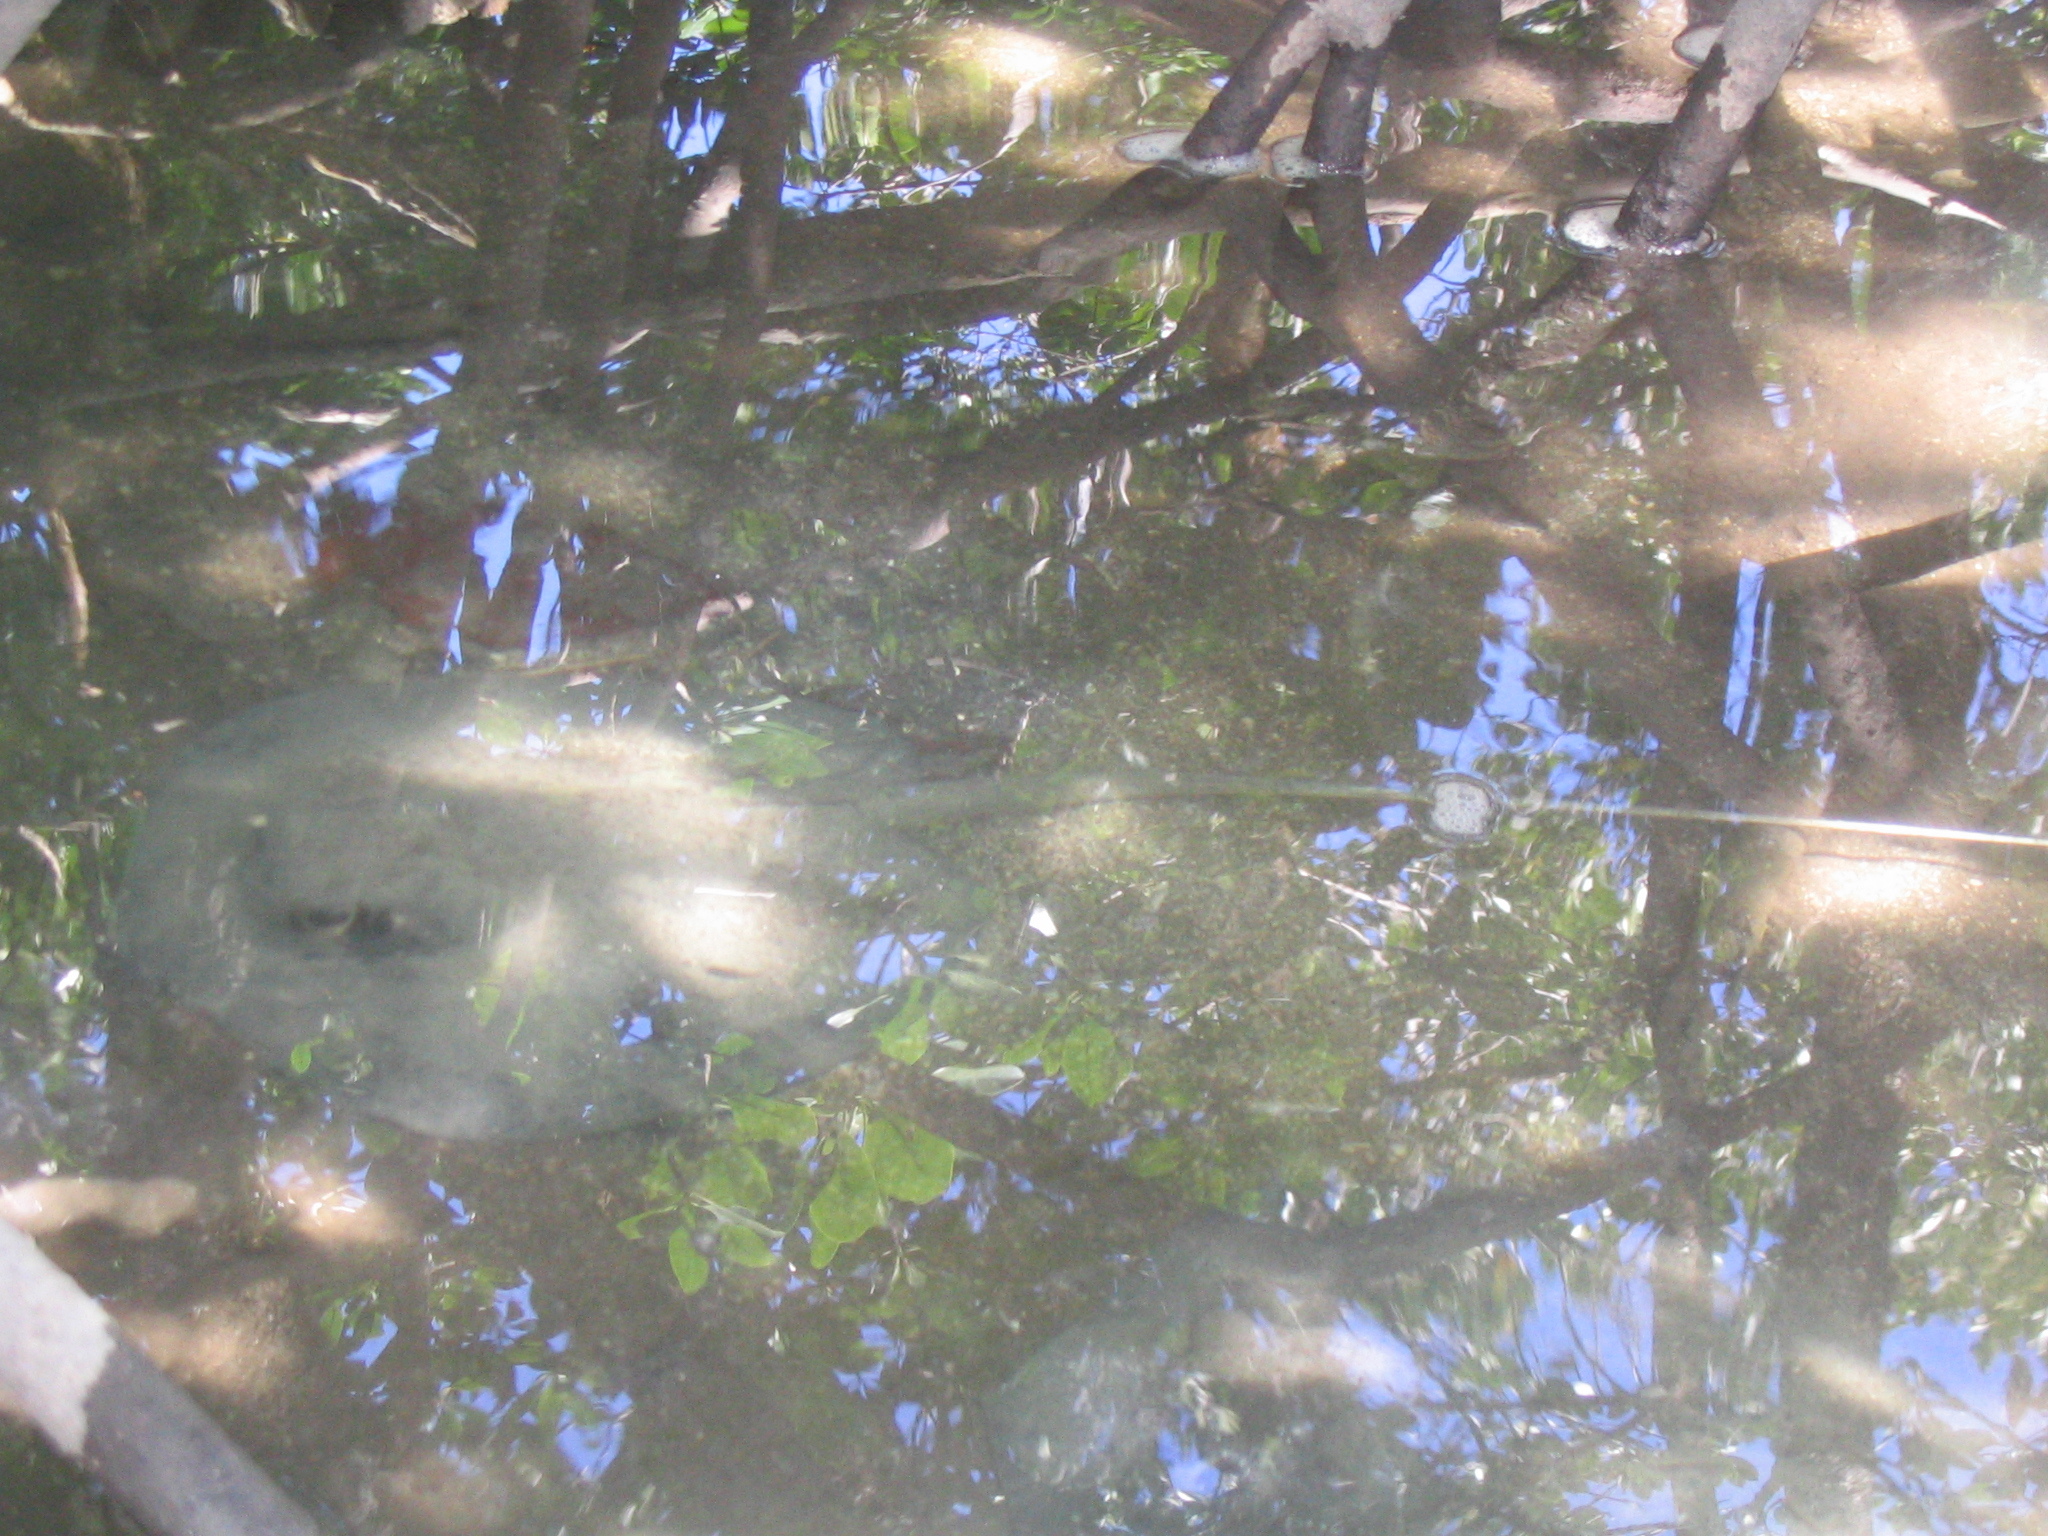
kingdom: Animalia
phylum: Chordata
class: Elasmobranchii
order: Myliobatiformes
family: Dasyatidae
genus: Urogymnus
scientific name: Urogymnus granulatus
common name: Mangrove whipray
